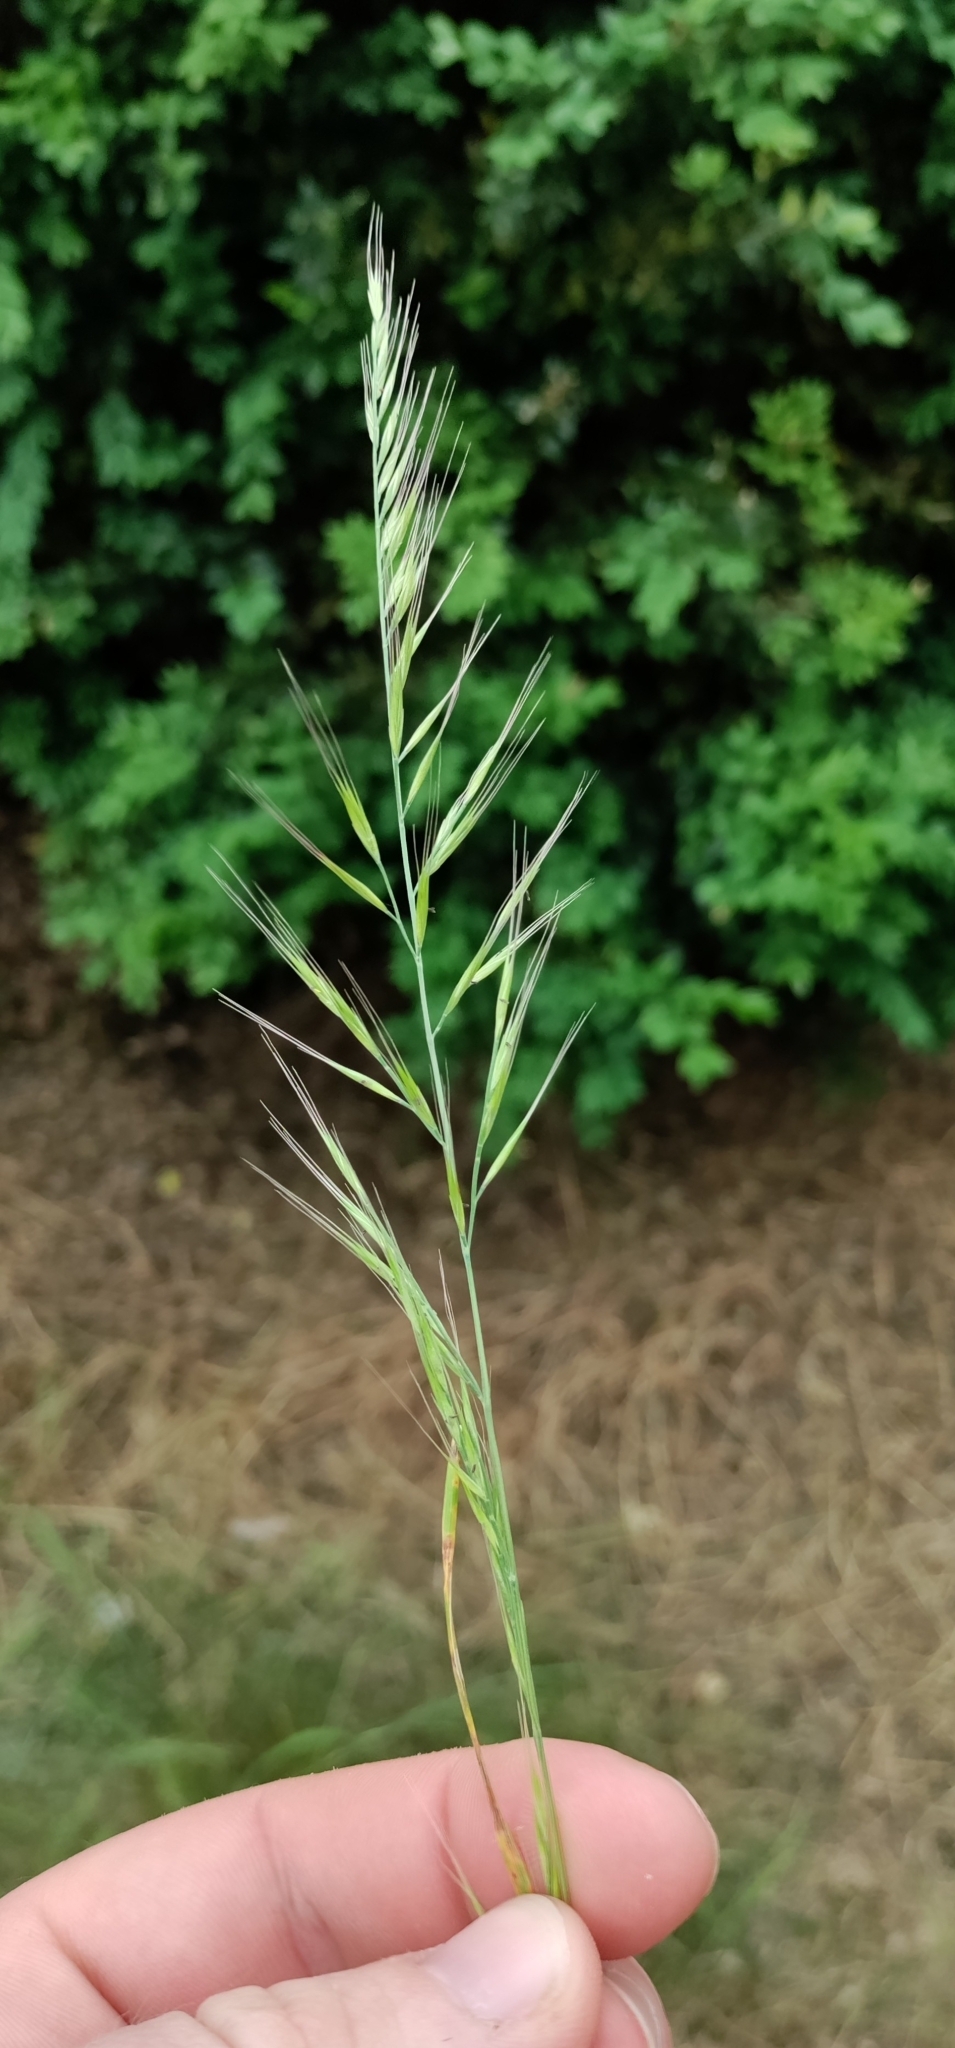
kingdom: Plantae
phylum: Tracheophyta
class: Liliopsida
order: Poales
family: Poaceae
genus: Festuca
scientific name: Festuca myuros
